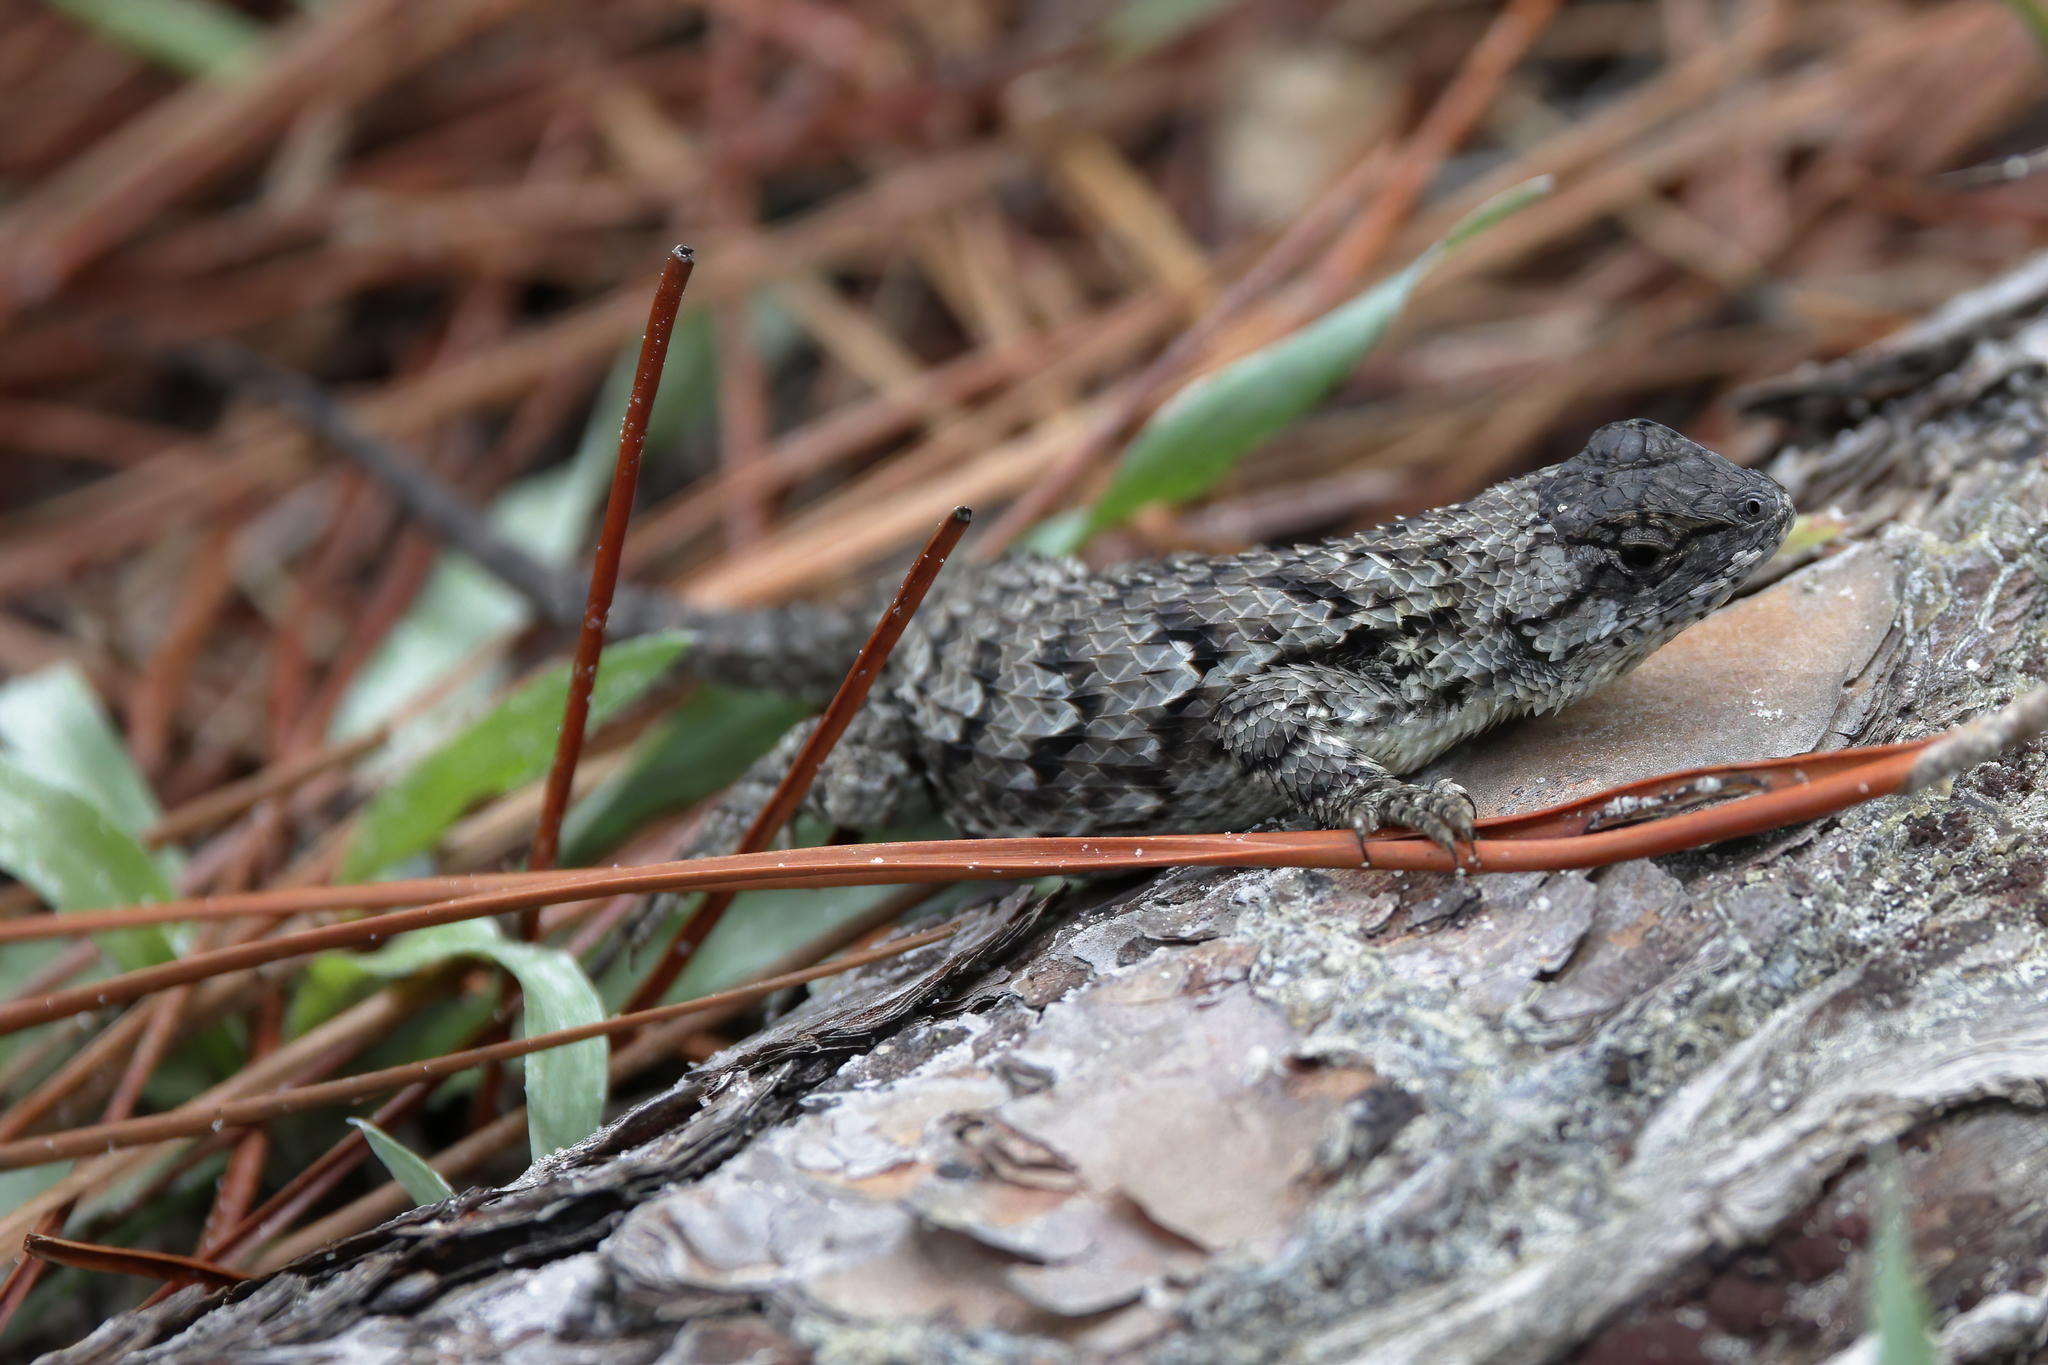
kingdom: Animalia
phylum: Chordata
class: Squamata
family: Phrynosomatidae
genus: Sceloporus
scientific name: Sceloporus undulatus
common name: Eastern fence lizard
